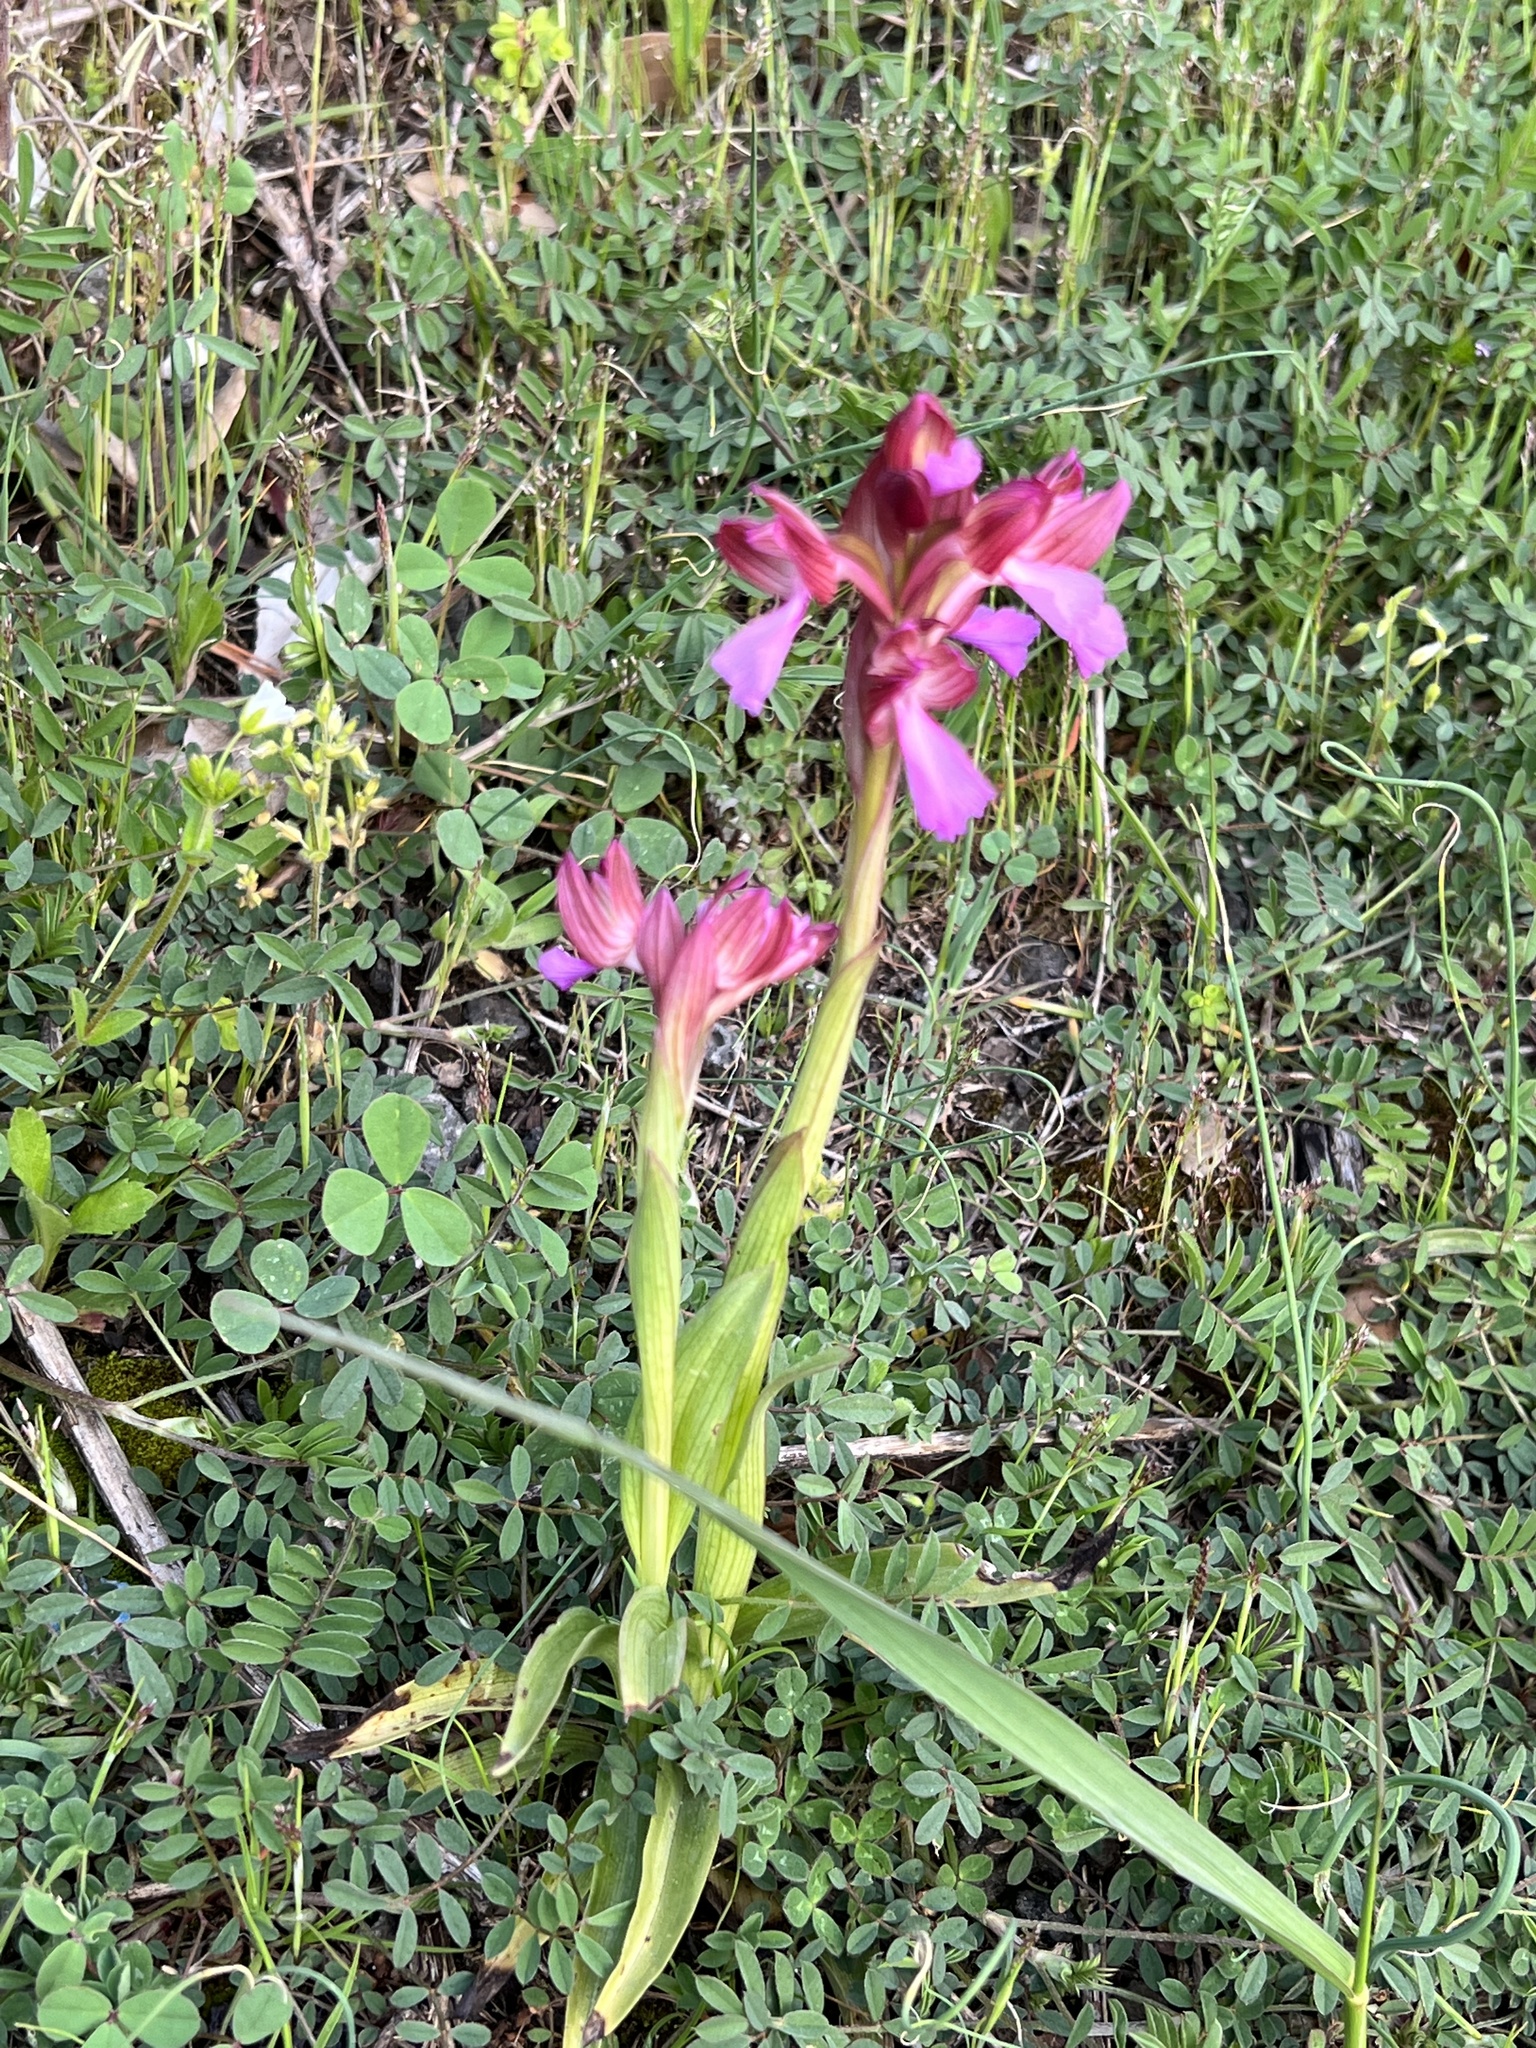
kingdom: Plantae
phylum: Tracheophyta
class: Liliopsida
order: Asparagales
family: Orchidaceae
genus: Anacamptis
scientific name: Anacamptis papilionacea
